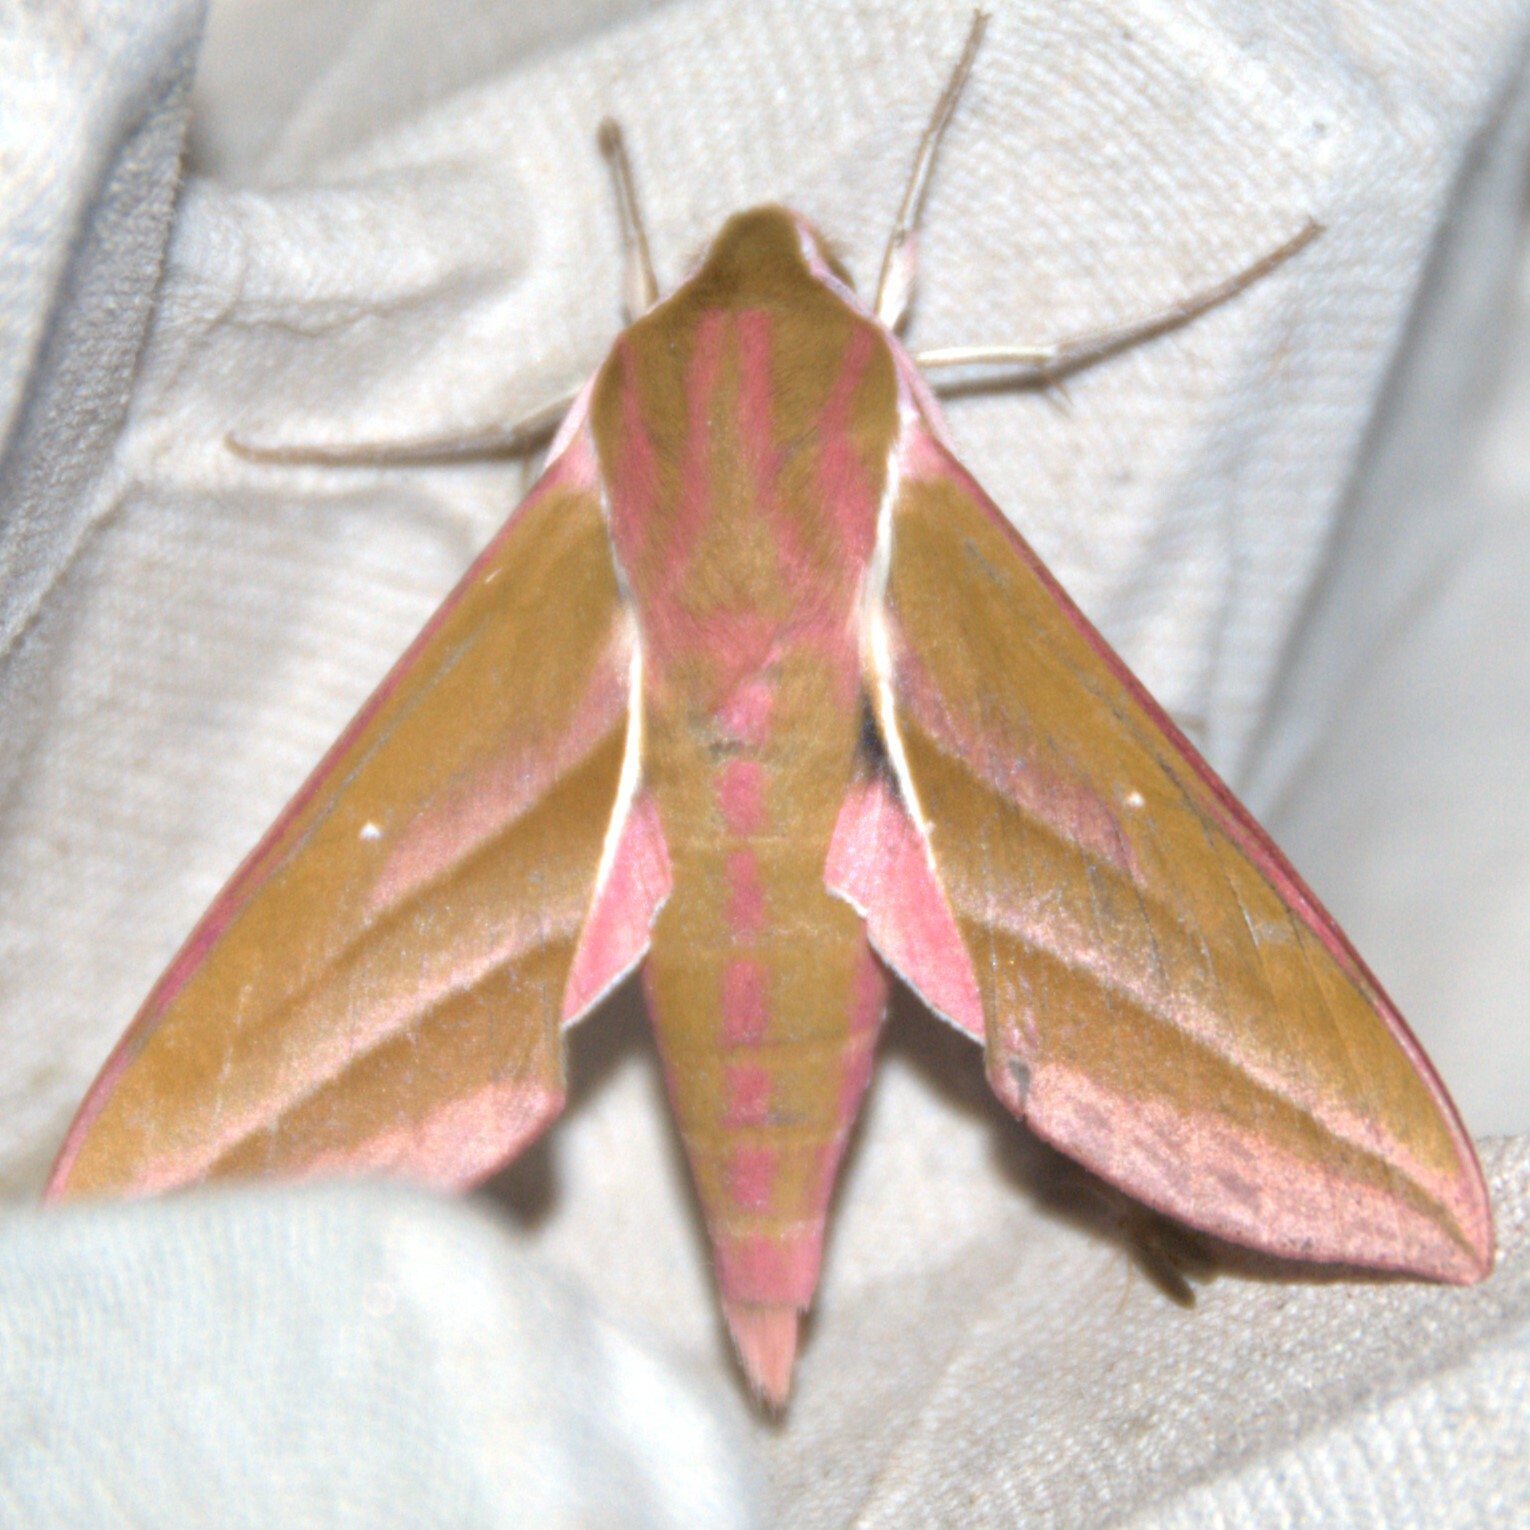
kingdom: Animalia
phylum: Arthropoda
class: Insecta
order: Lepidoptera
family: Sphingidae
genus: Deilephila
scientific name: Deilephila elpenor
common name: Elephant hawk-moth
